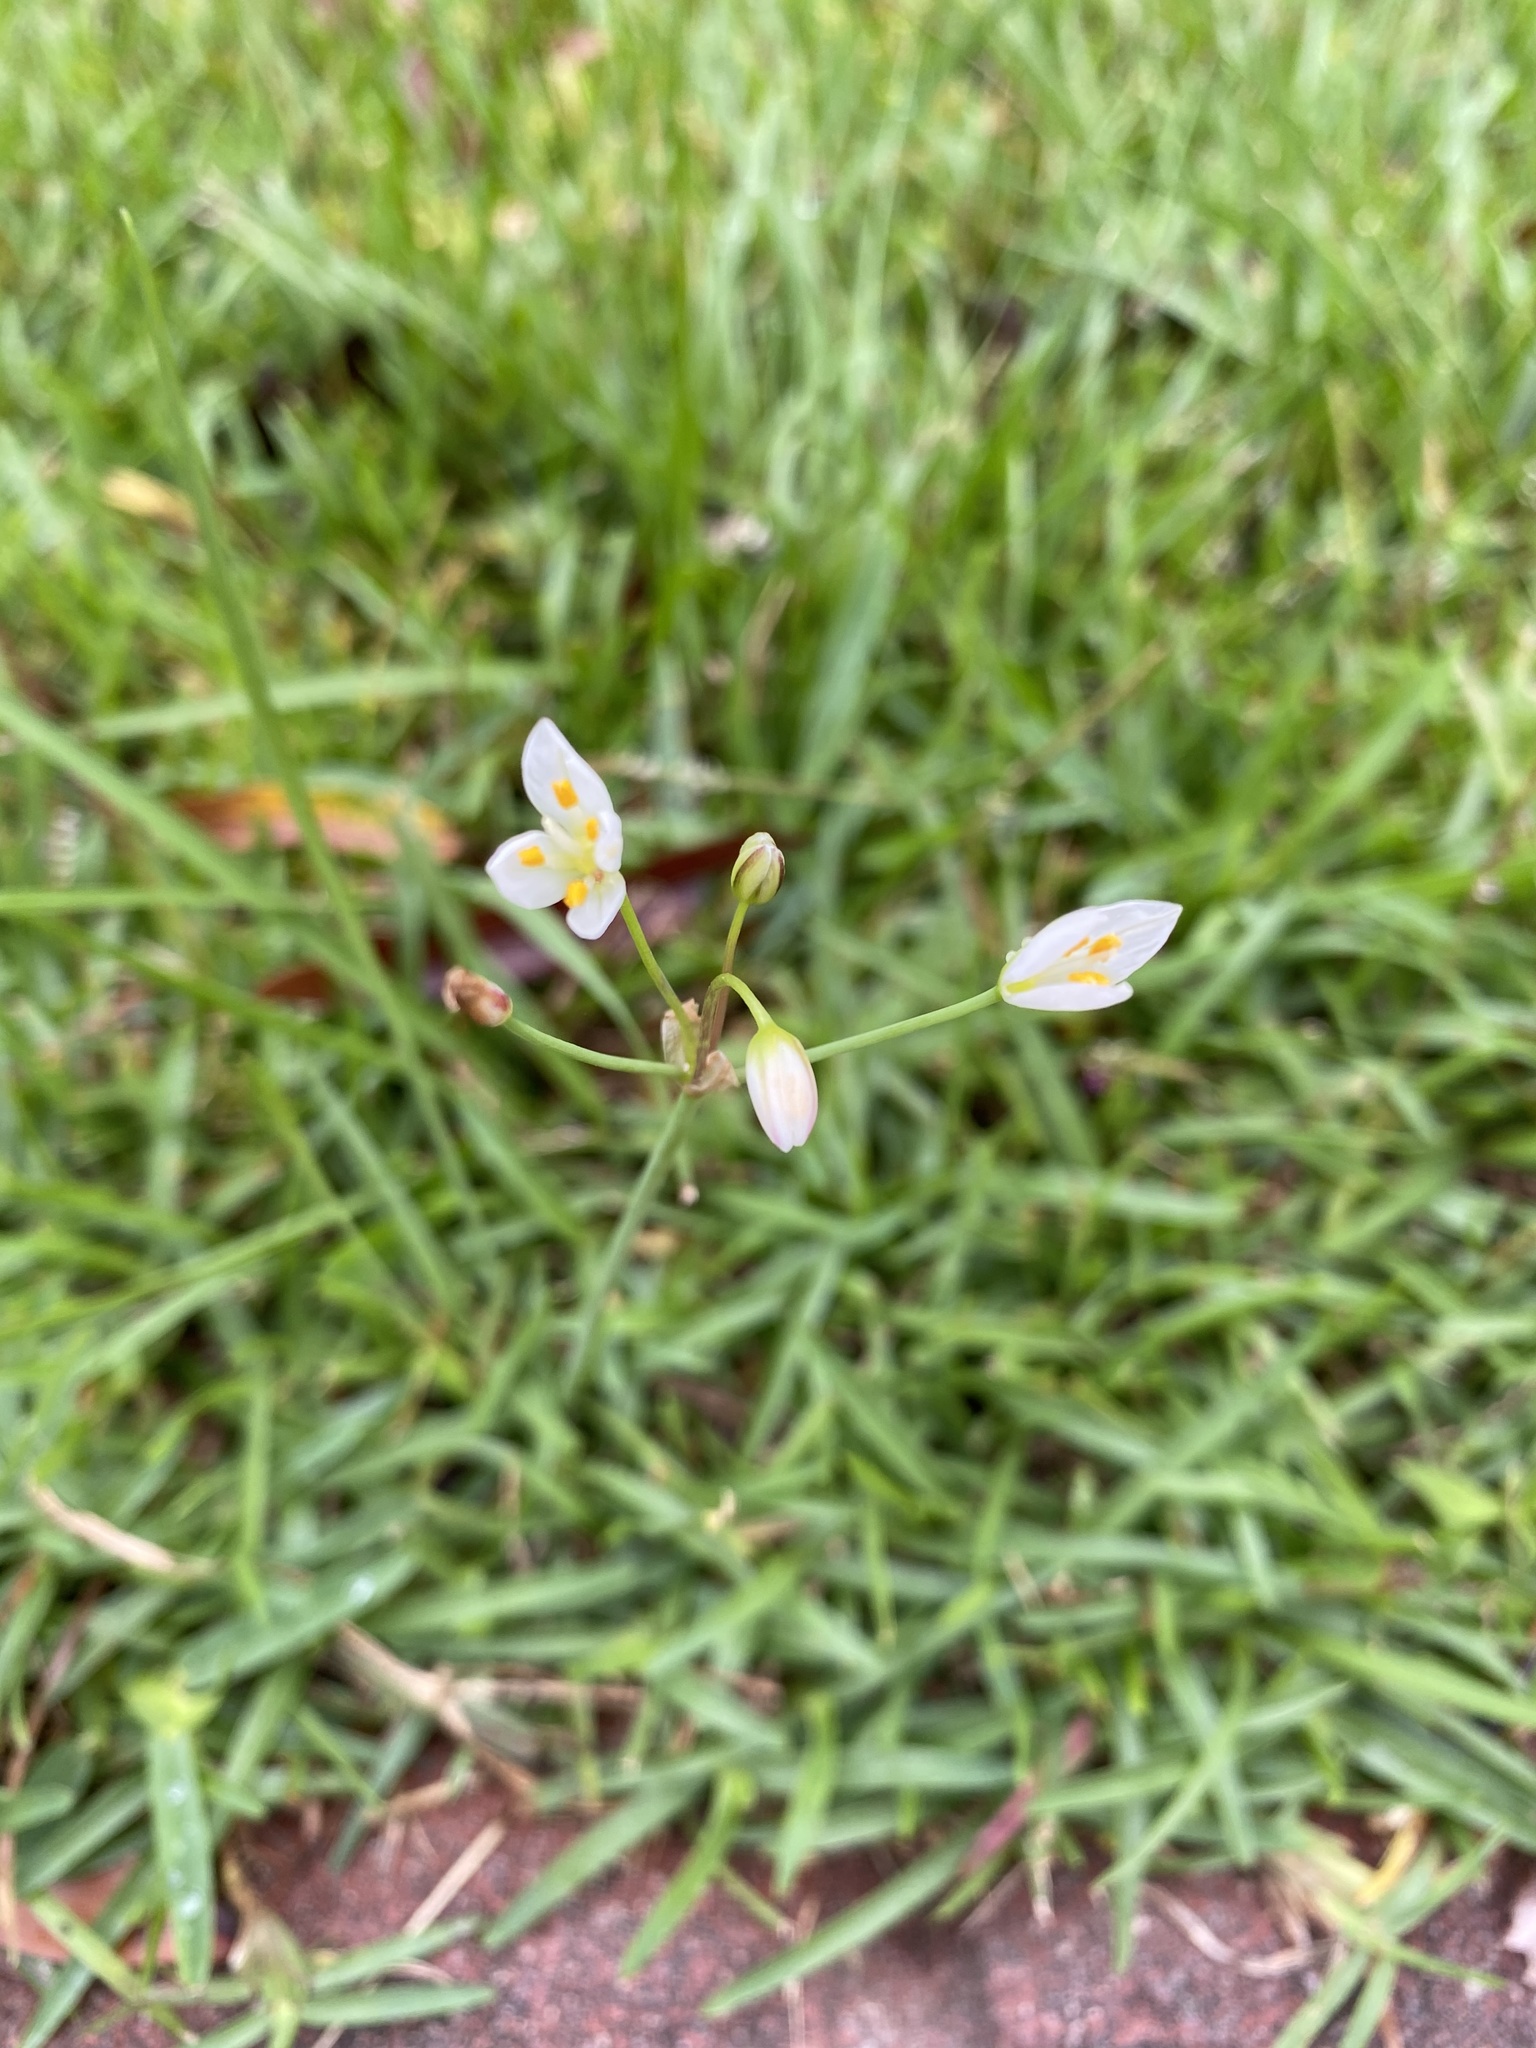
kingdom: Plantae
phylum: Tracheophyta
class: Liliopsida
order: Asparagales
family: Amaryllidaceae
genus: Nothoscordum
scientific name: Nothoscordum bivalve
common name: Crow-poison
